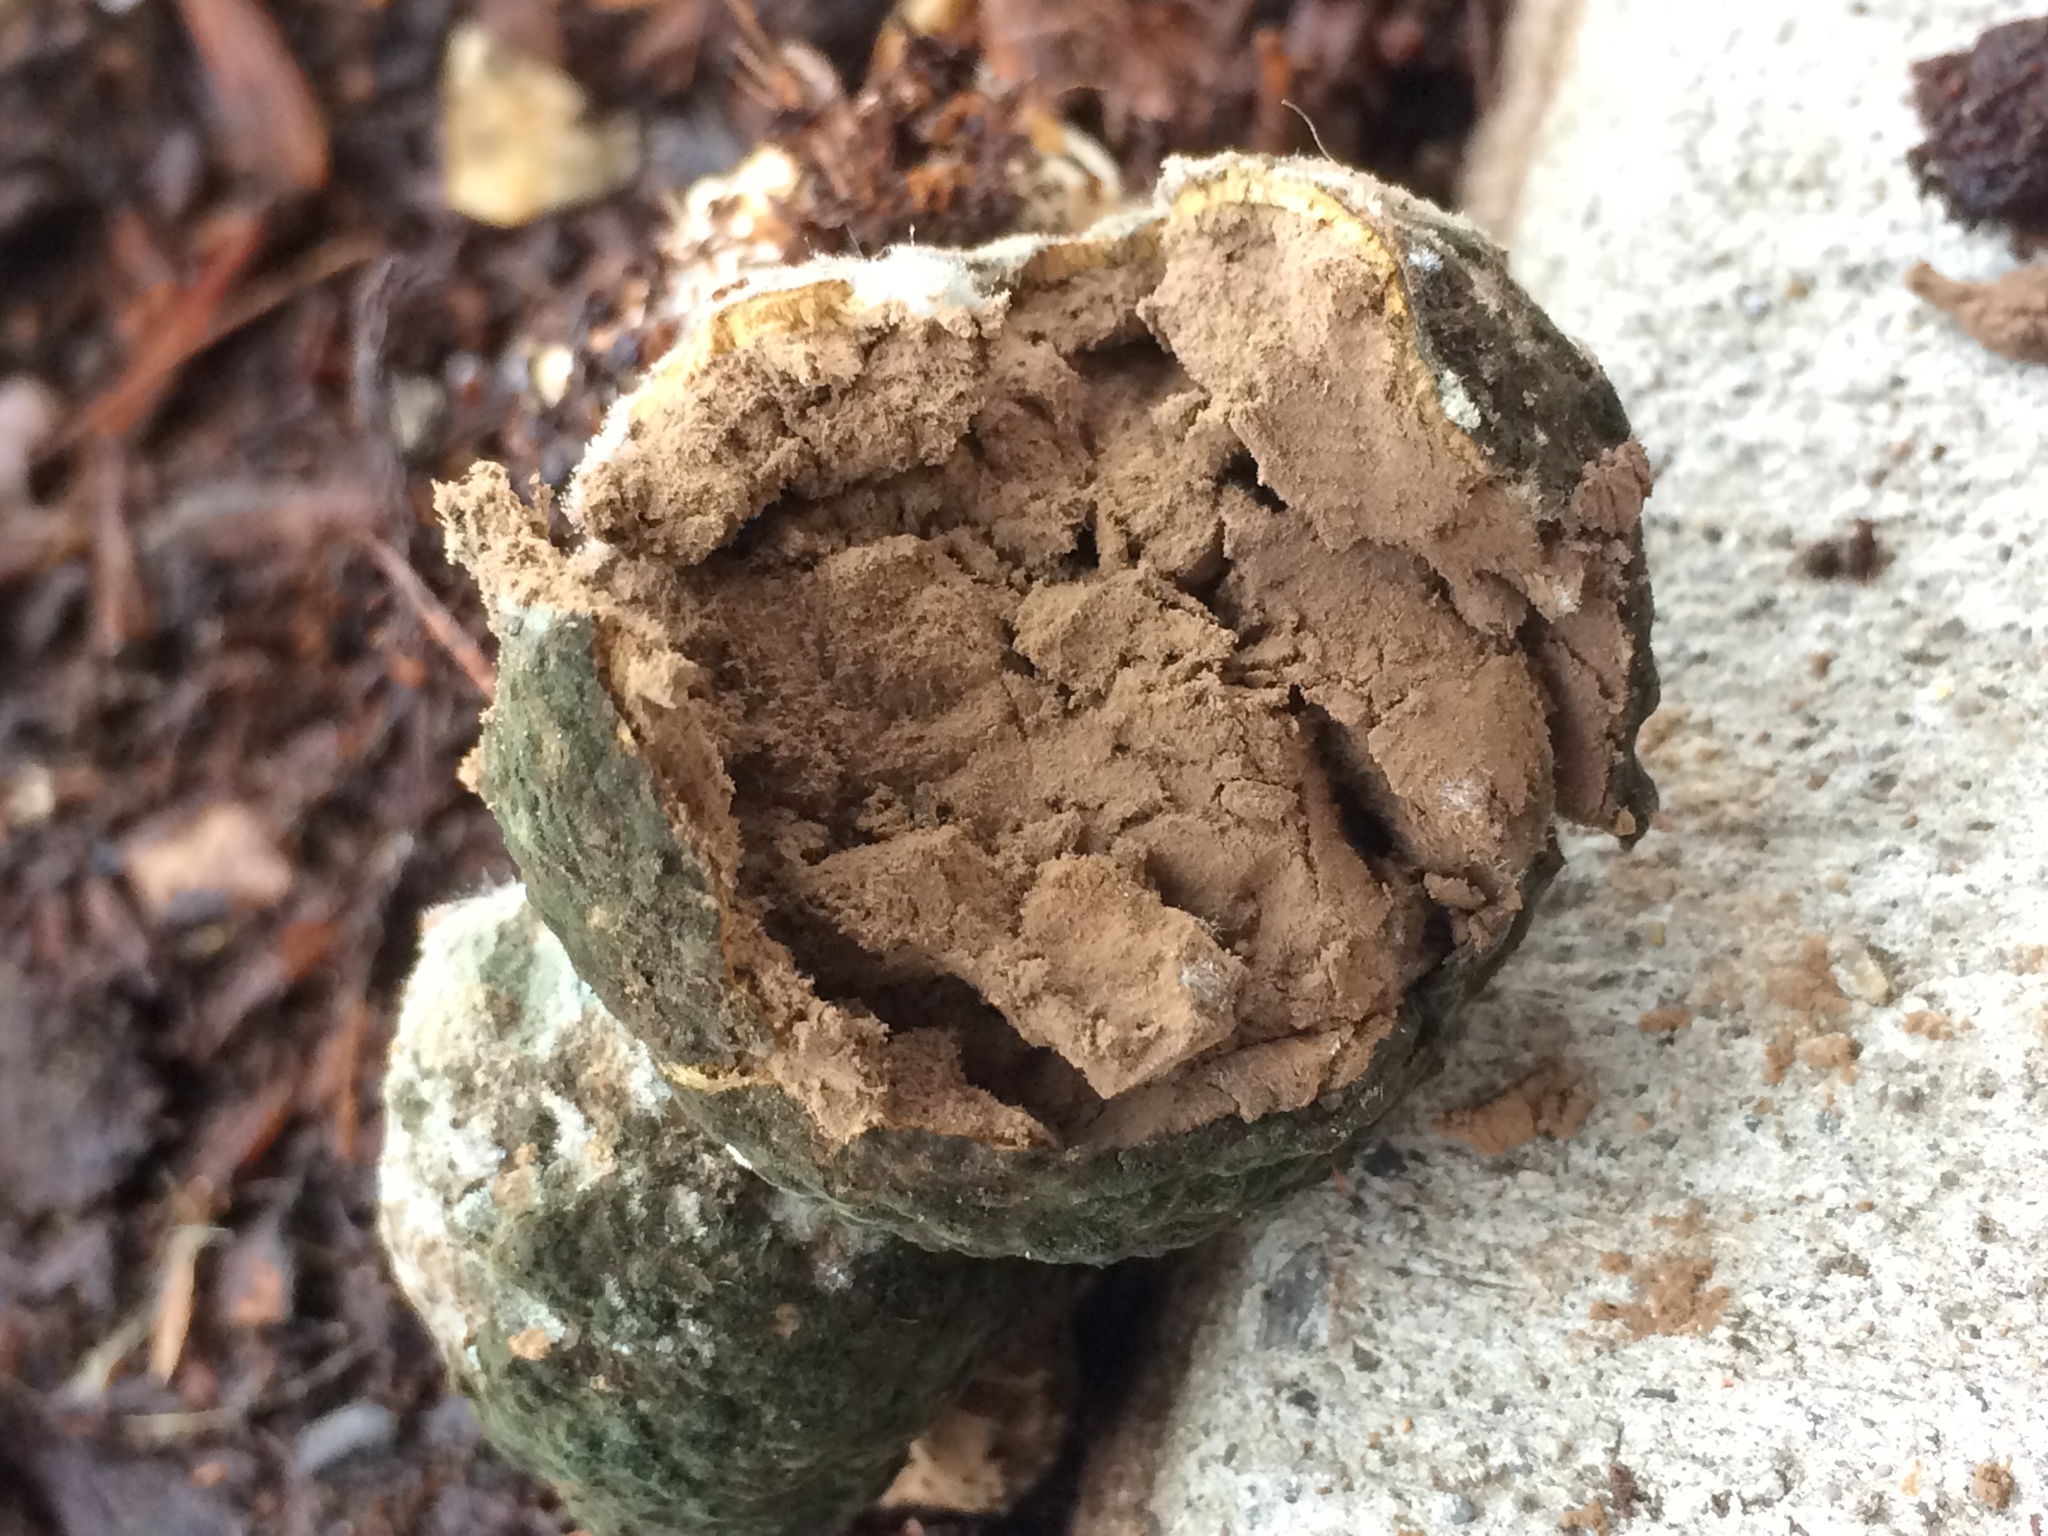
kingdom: Fungi
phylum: Basidiomycota
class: Agaricomycetes
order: Boletales
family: Sclerodermataceae
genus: Pisolithus
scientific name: Pisolithus arhizus
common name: Dyeball
